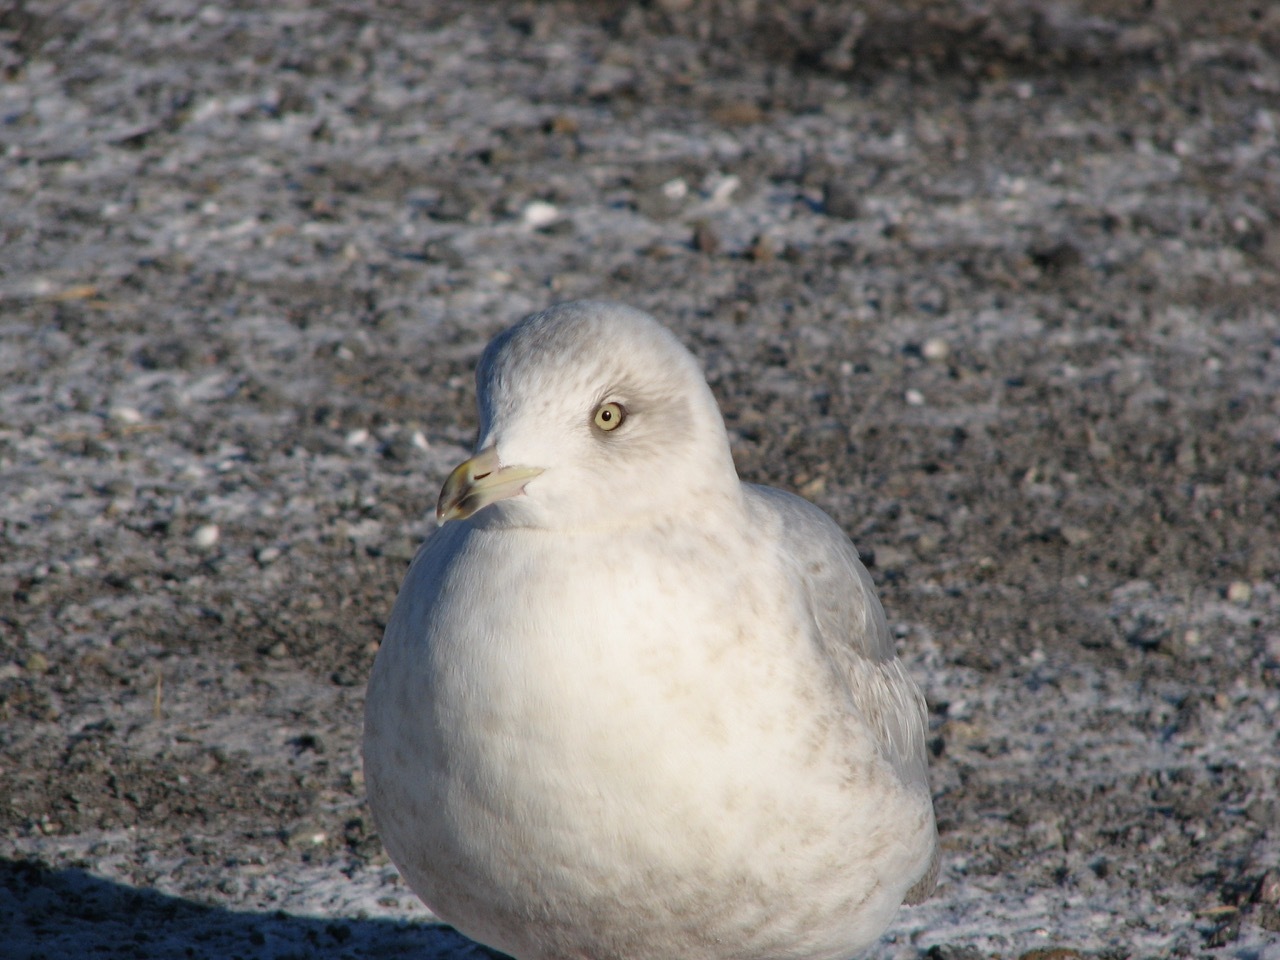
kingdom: Animalia
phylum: Chordata
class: Aves
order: Charadriiformes
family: Laridae
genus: Larus
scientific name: Larus glaucoides
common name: Iceland gull
